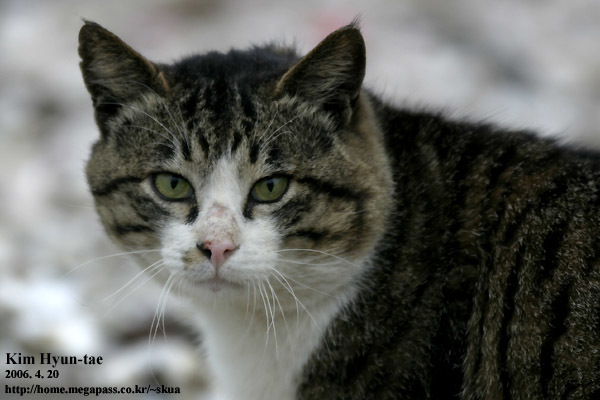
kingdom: Animalia
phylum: Chordata
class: Mammalia
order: Carnivora
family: Felidae
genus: Felis
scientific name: Felis catus
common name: Domestic cat
